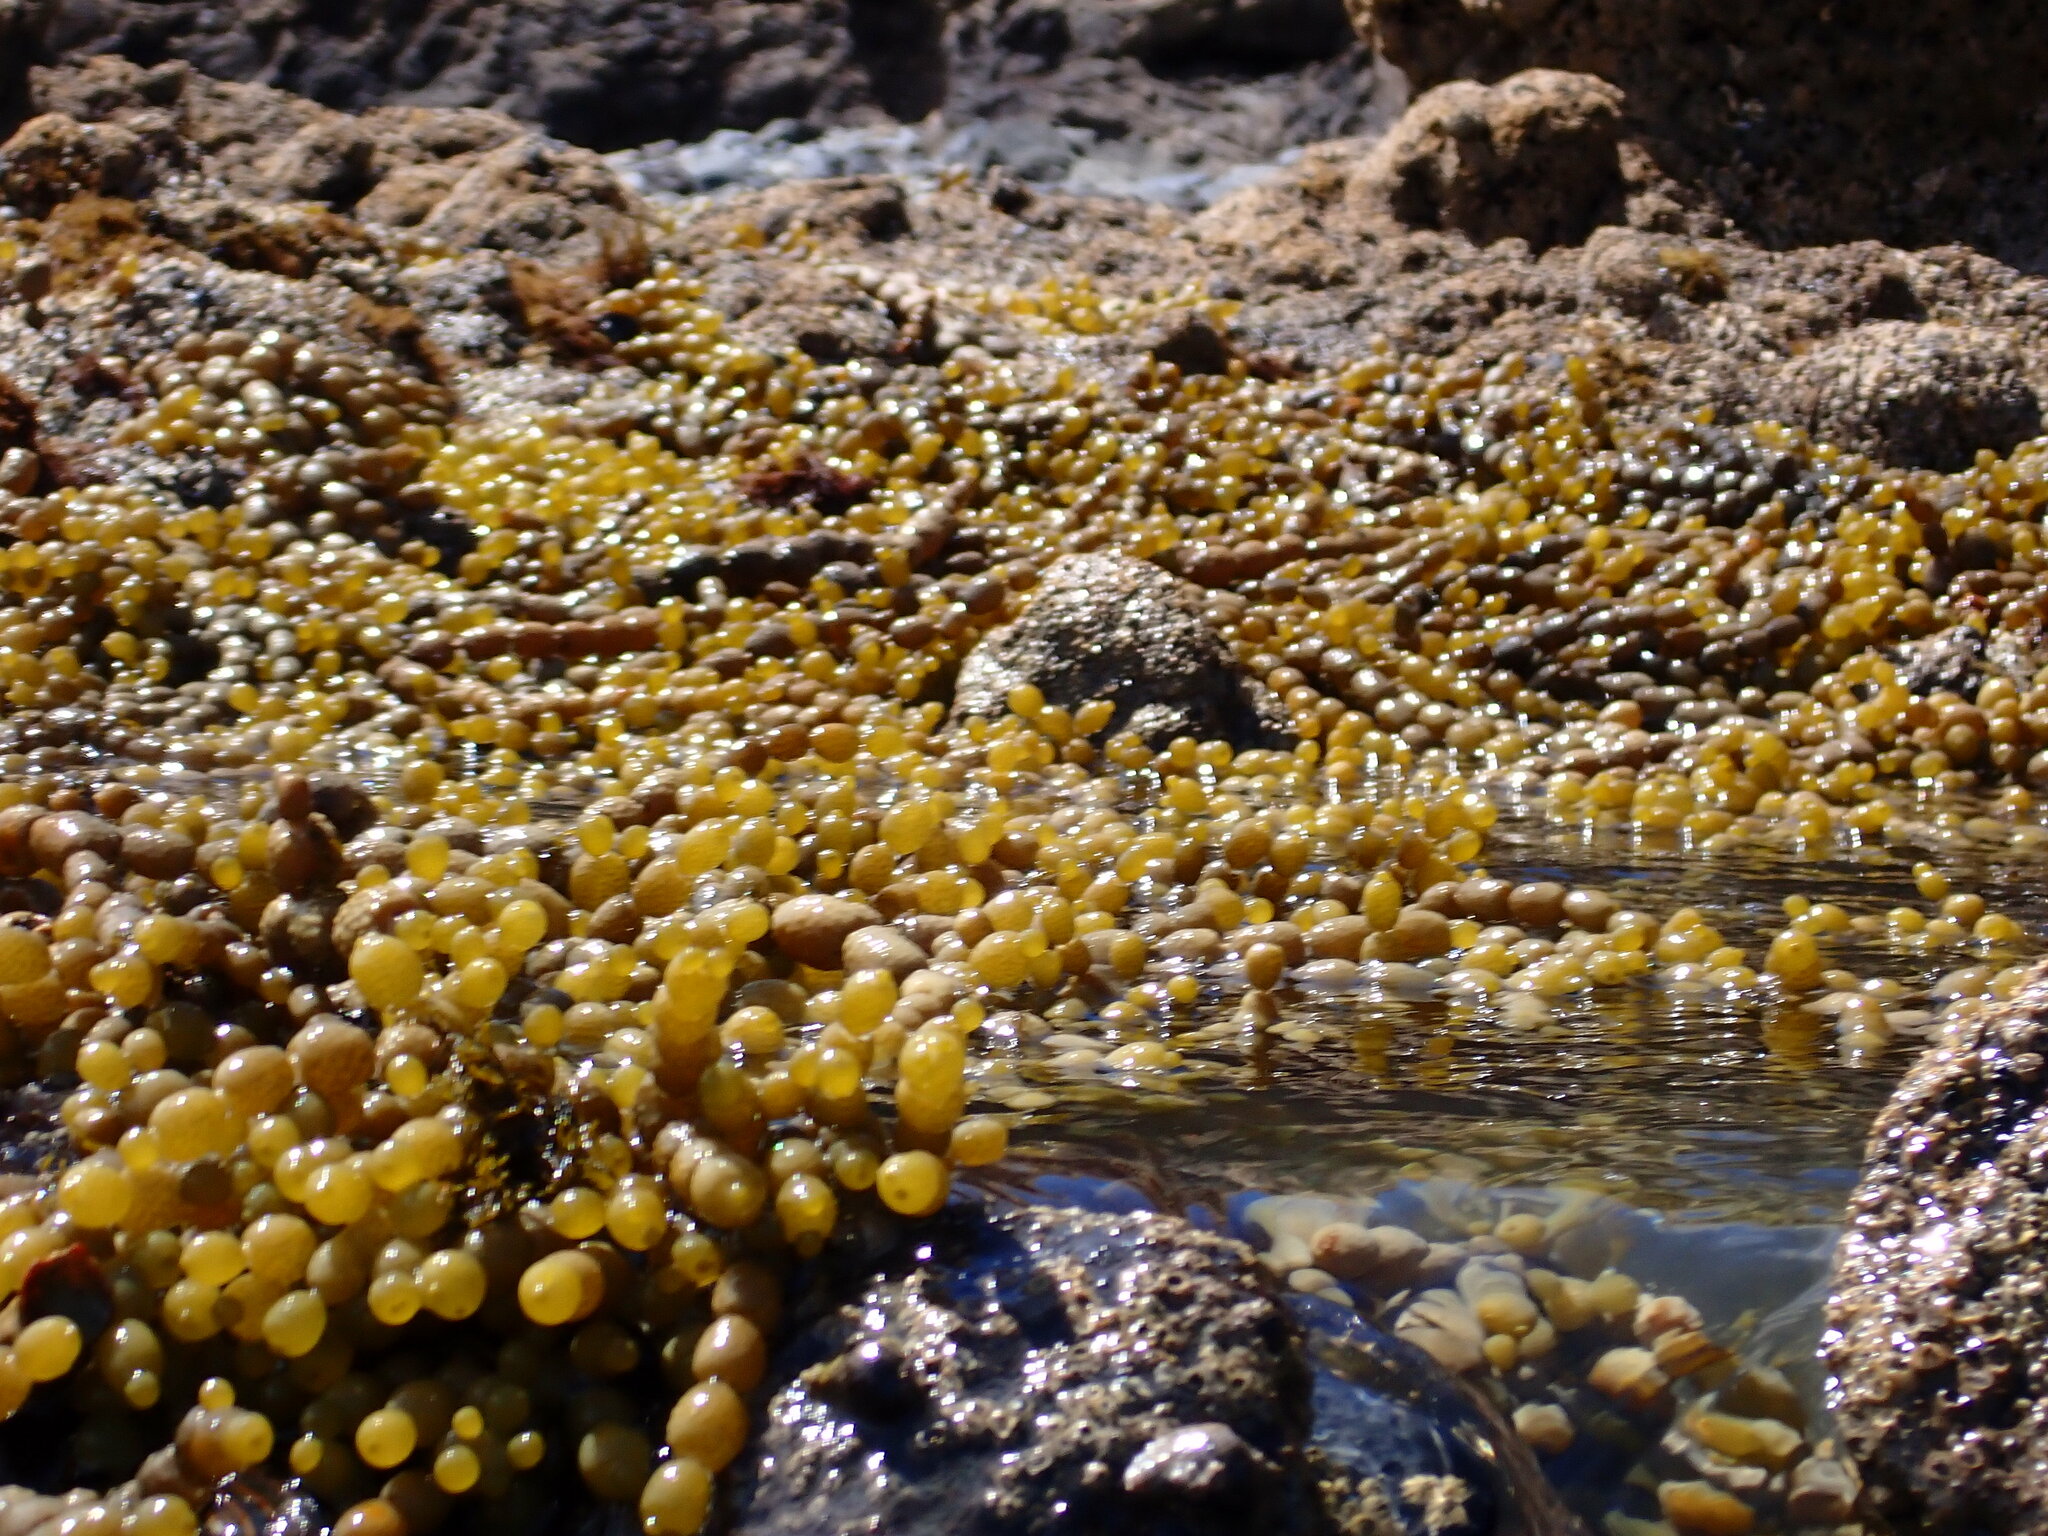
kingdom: Chromista
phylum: Ochrophyta
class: Phaeophyceae
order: Fucales
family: Hormosiraceae
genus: Hormosira
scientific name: Hormosira banksii
